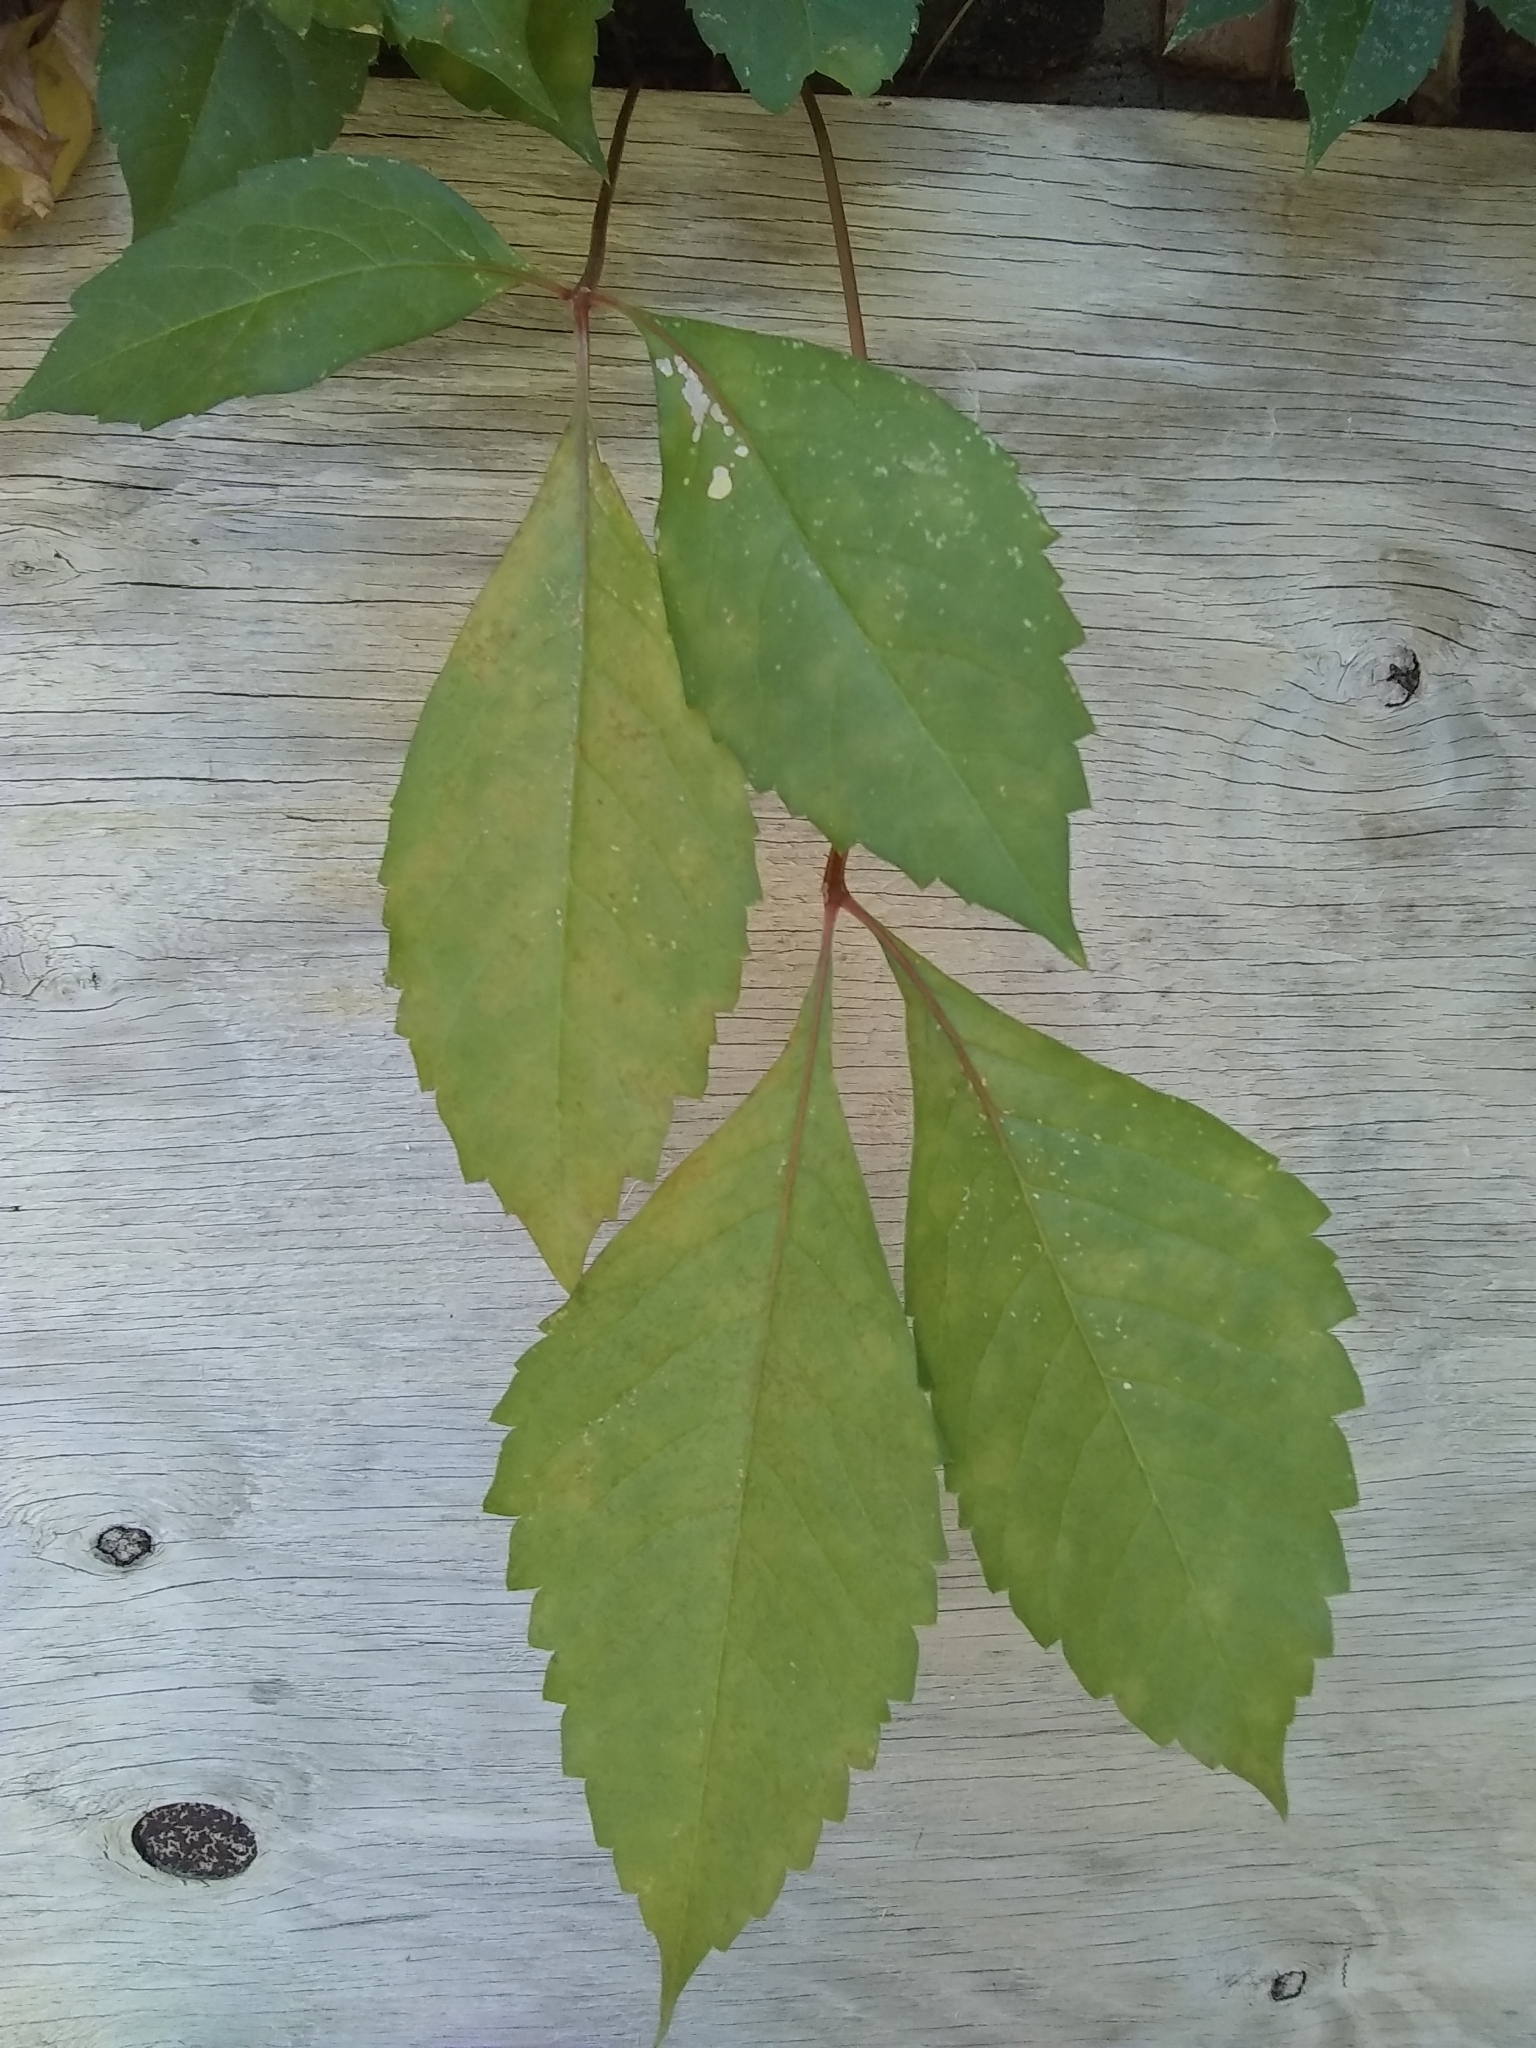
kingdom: Plantae
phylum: Tracheophyta
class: Magnoliopsida
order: Vitales
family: Vitaceae
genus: Parthenocissus
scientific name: Parthenocissus quinquefolia
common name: Virginia-creeper
